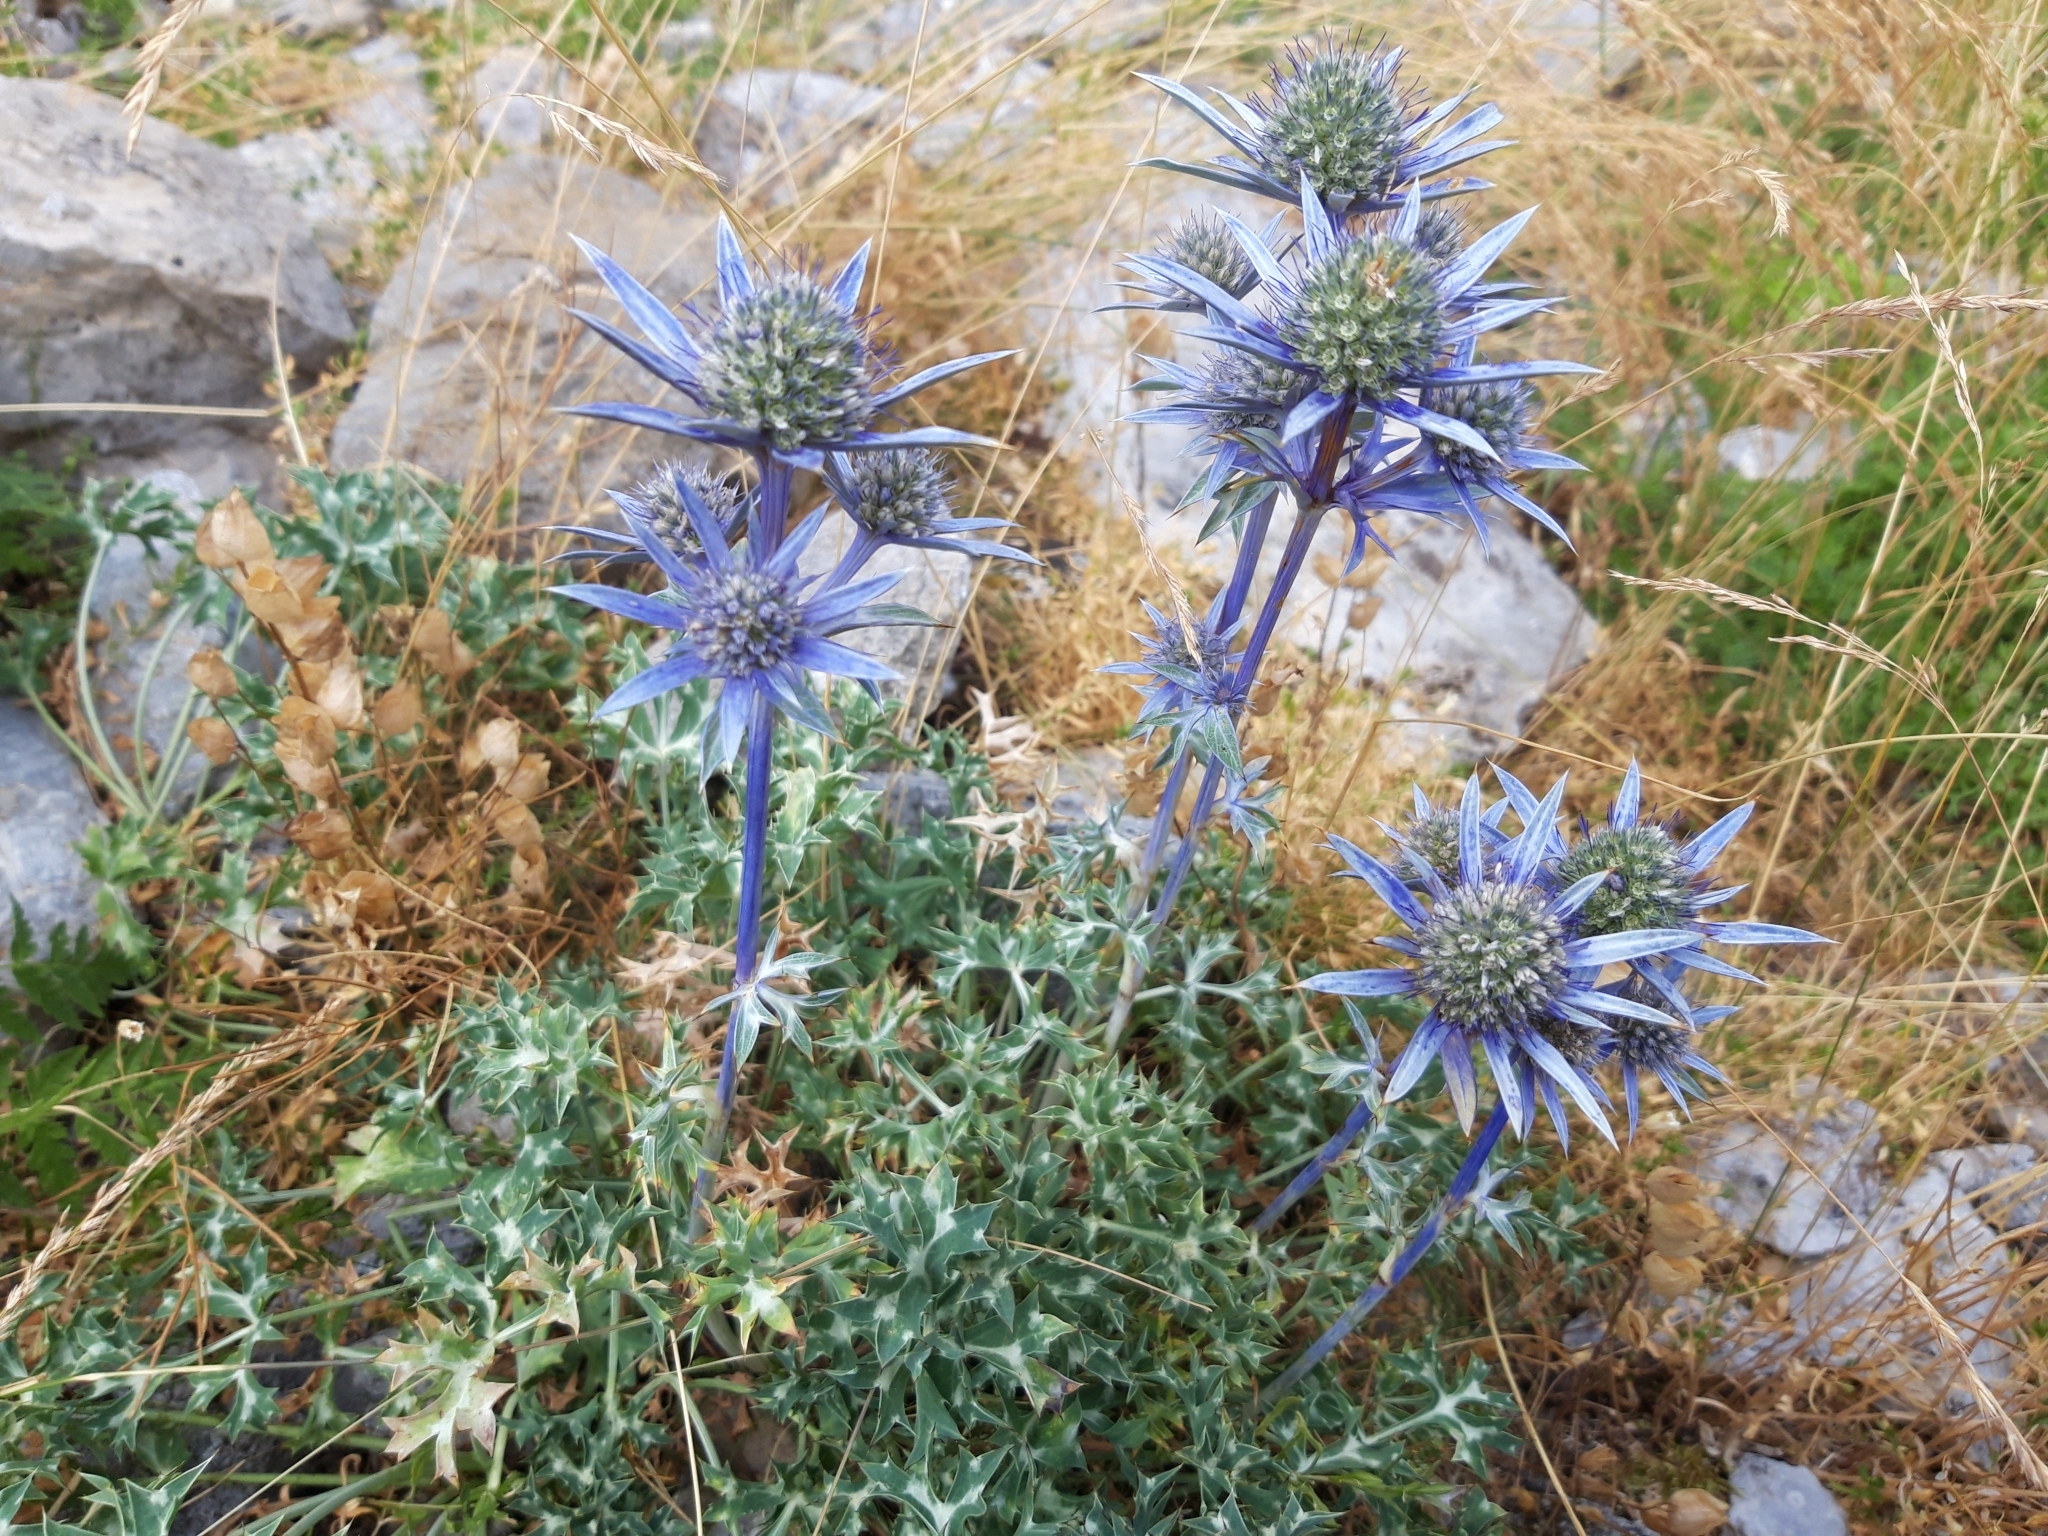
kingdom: Plantae
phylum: Tracheophyta
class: Magnoliopsida
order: Apiales
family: Apiaceae
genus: Eryngium
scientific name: Eryngium bourgatii
